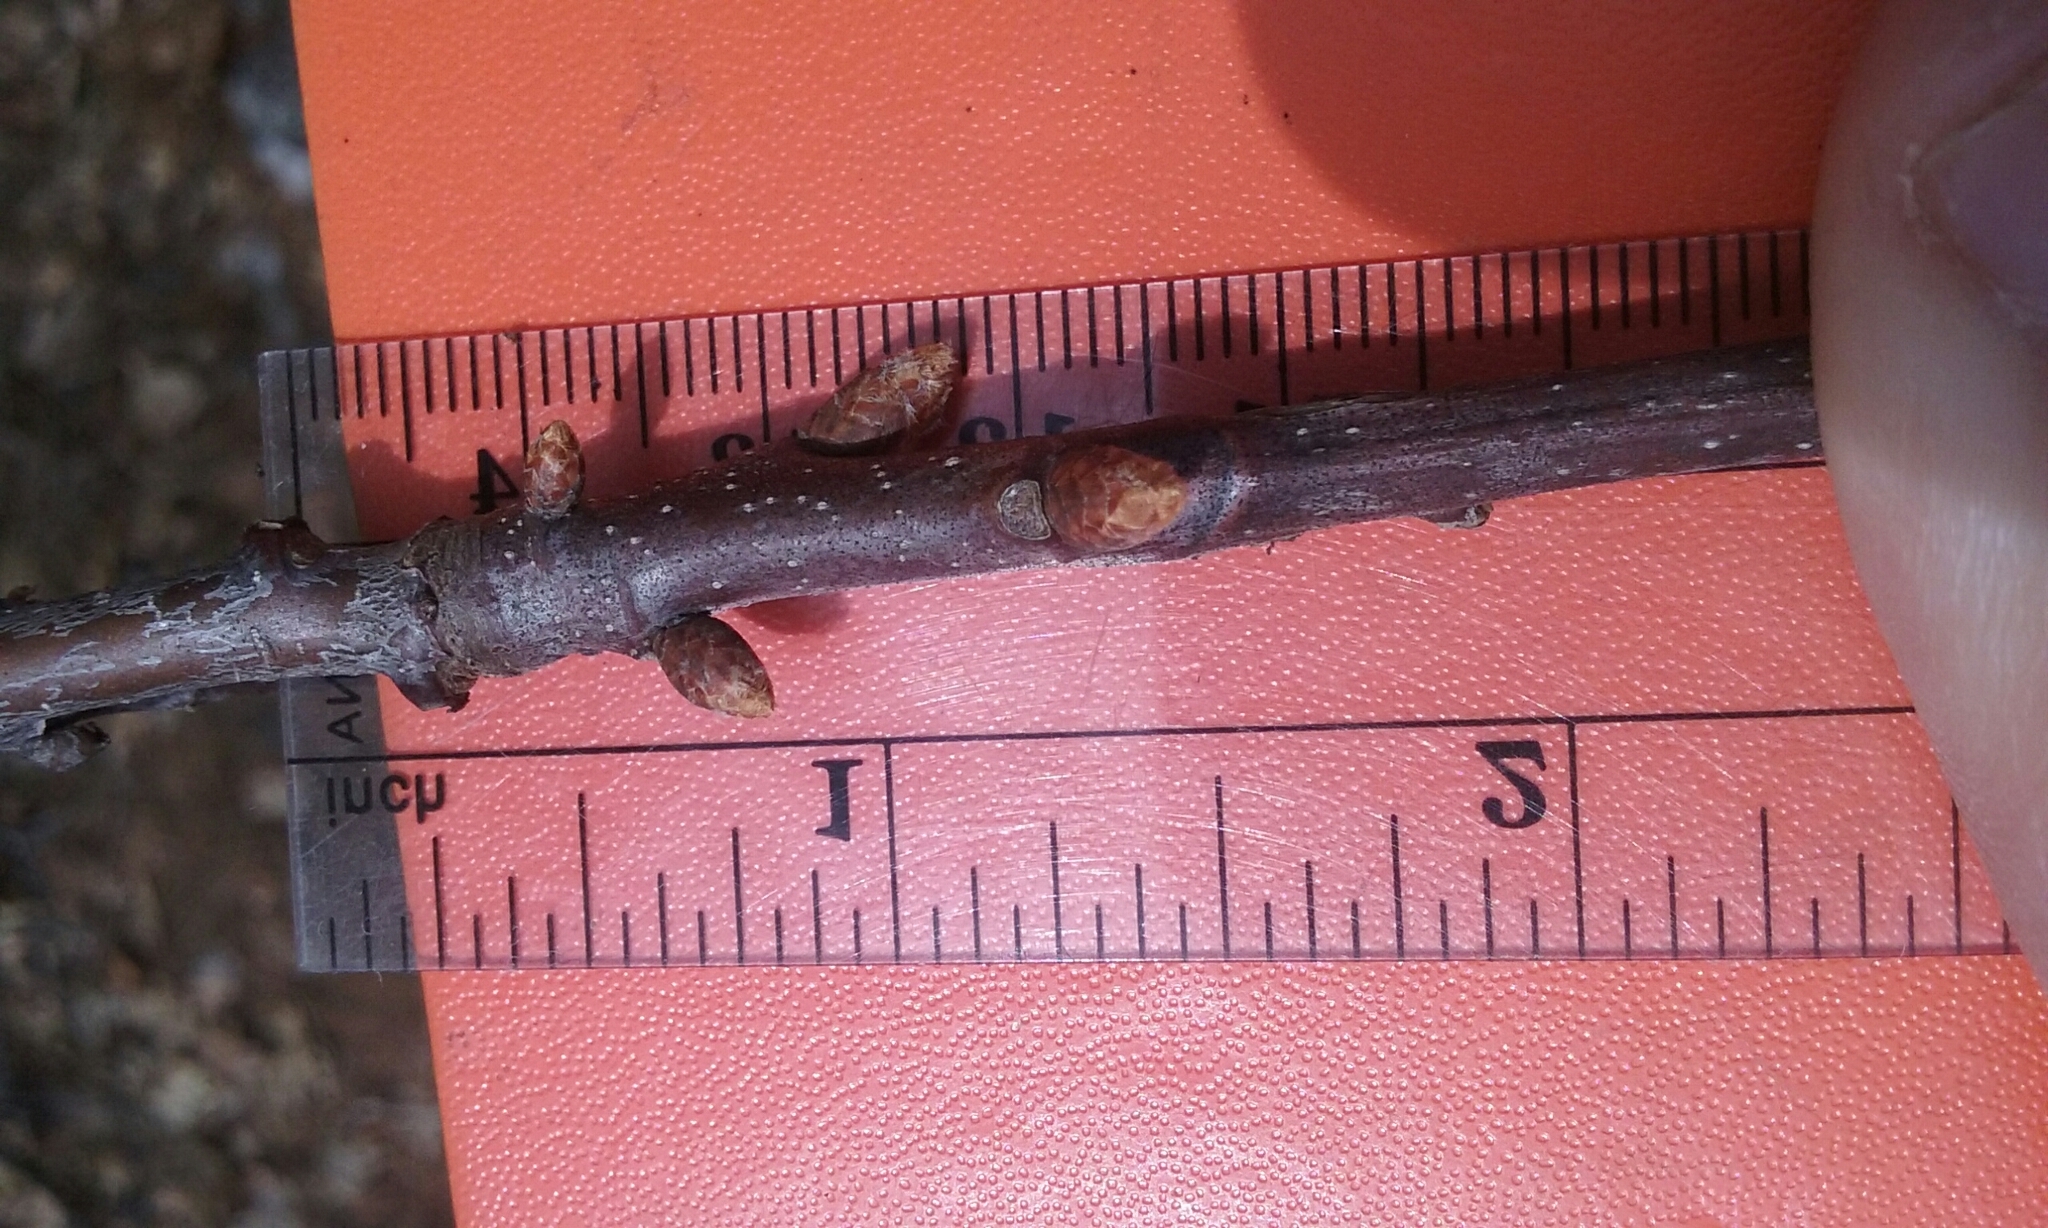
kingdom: Plantae
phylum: Tracheophyta
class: Magnoliopsida
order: Fagales
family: Fagaceae
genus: Quercus
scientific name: Quercus rubra
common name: Red oak
